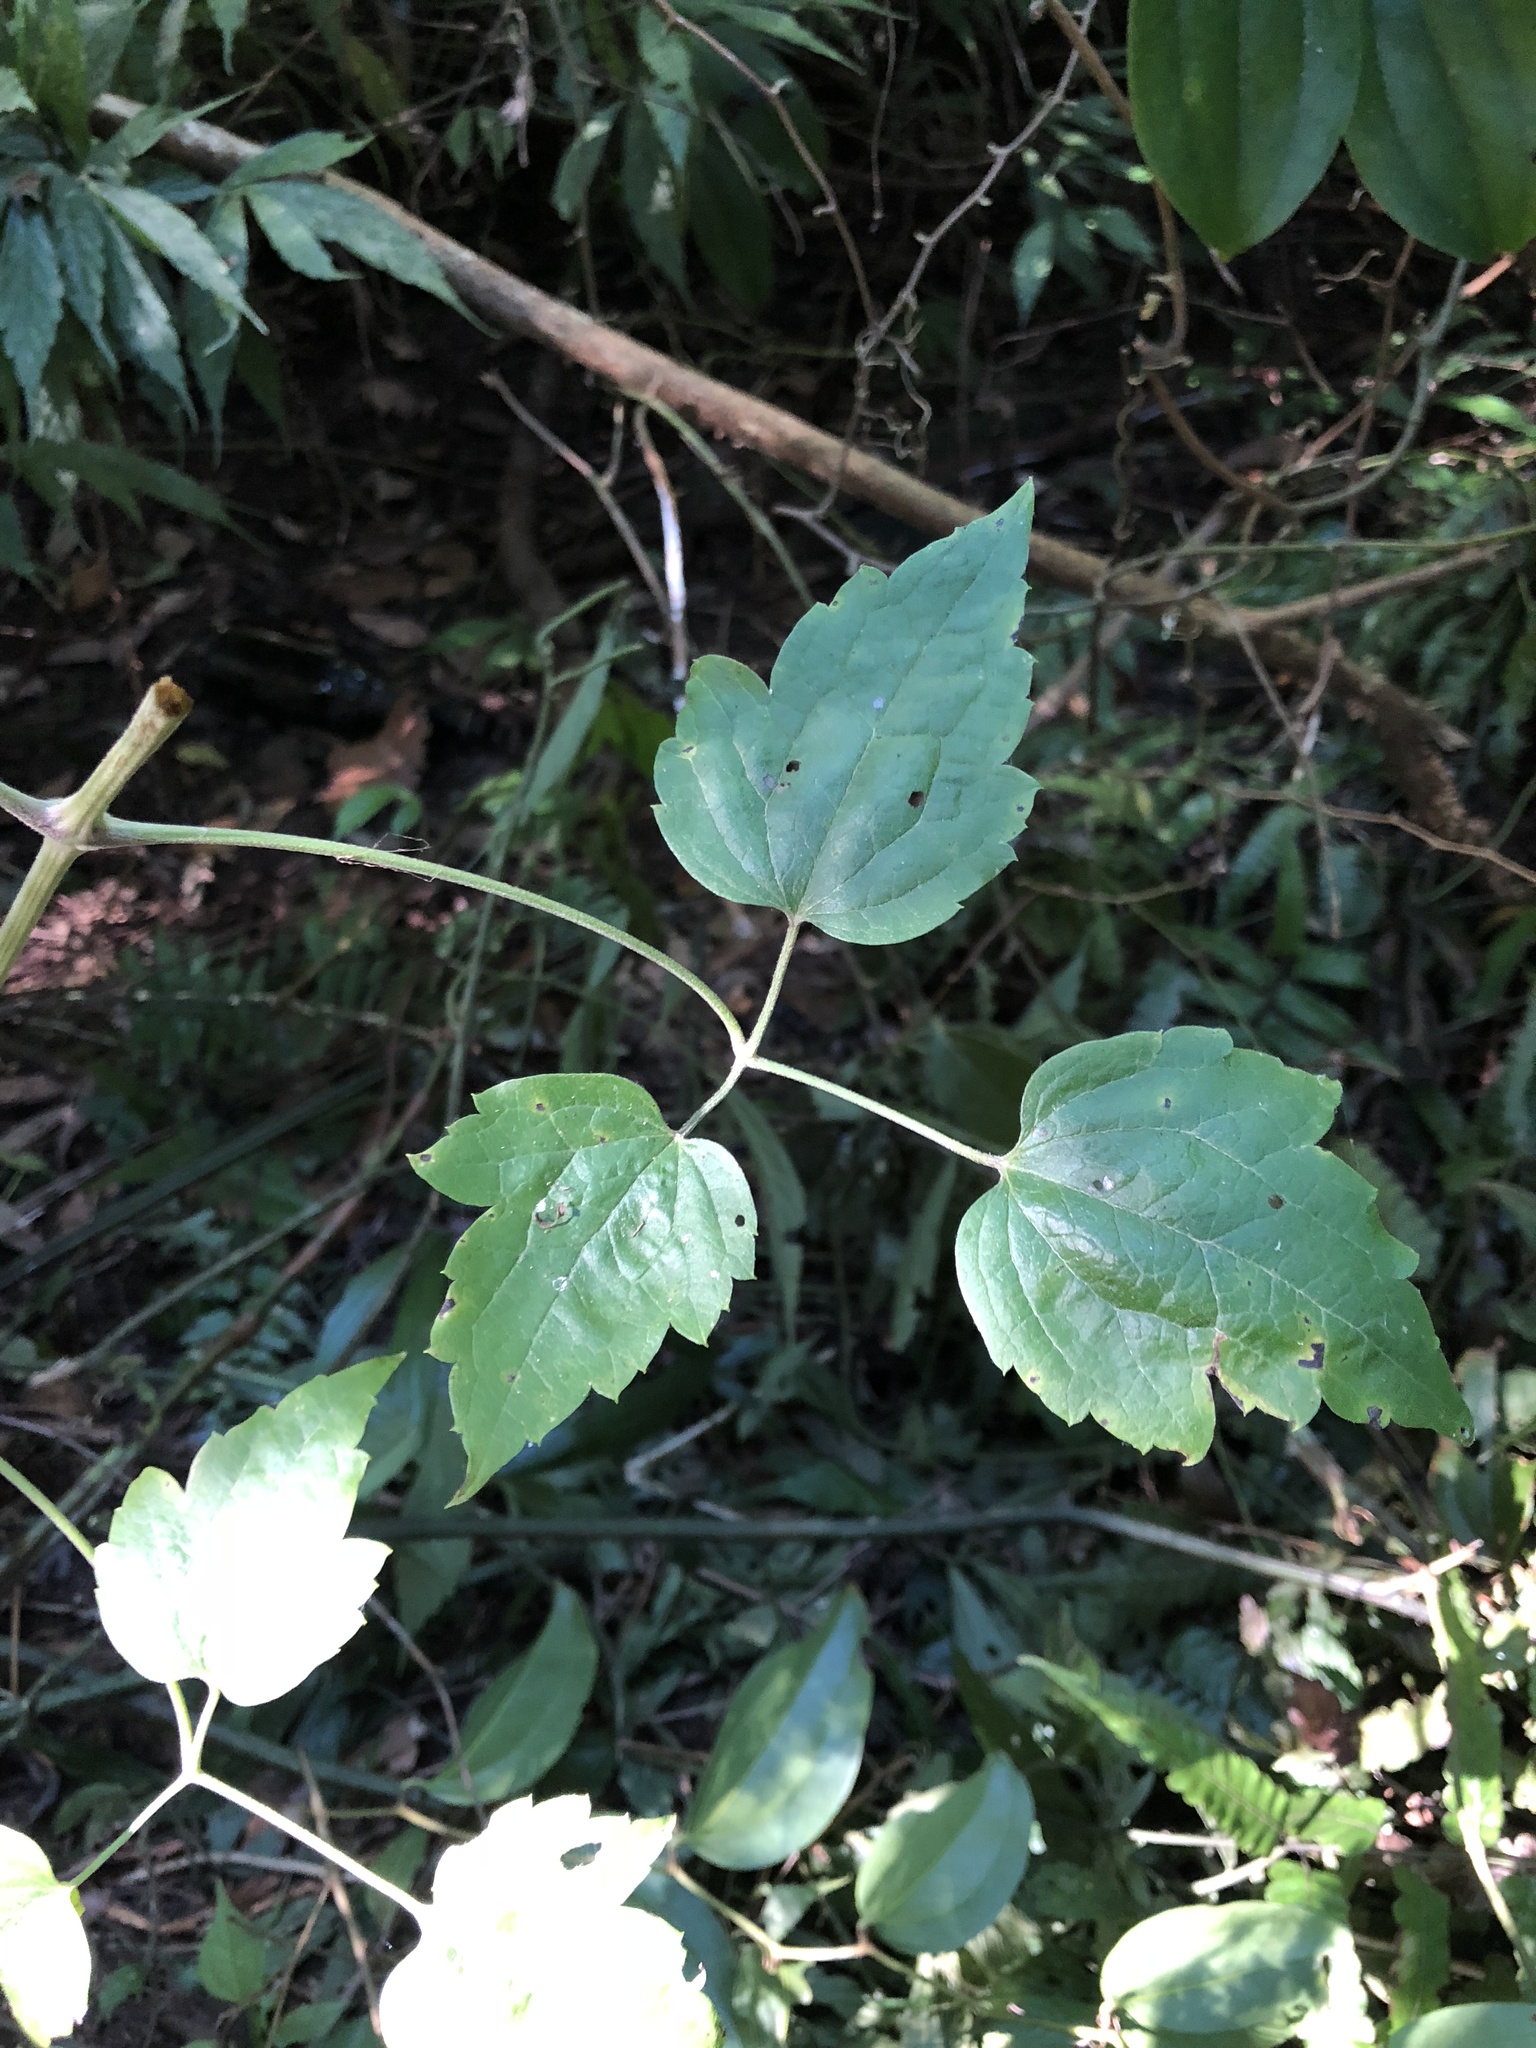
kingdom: Plantae
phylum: Tracheophyta
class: Magnoliopsida
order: Ranunculales
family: Ranunculaceae
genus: Clematis
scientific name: Clematis grata
